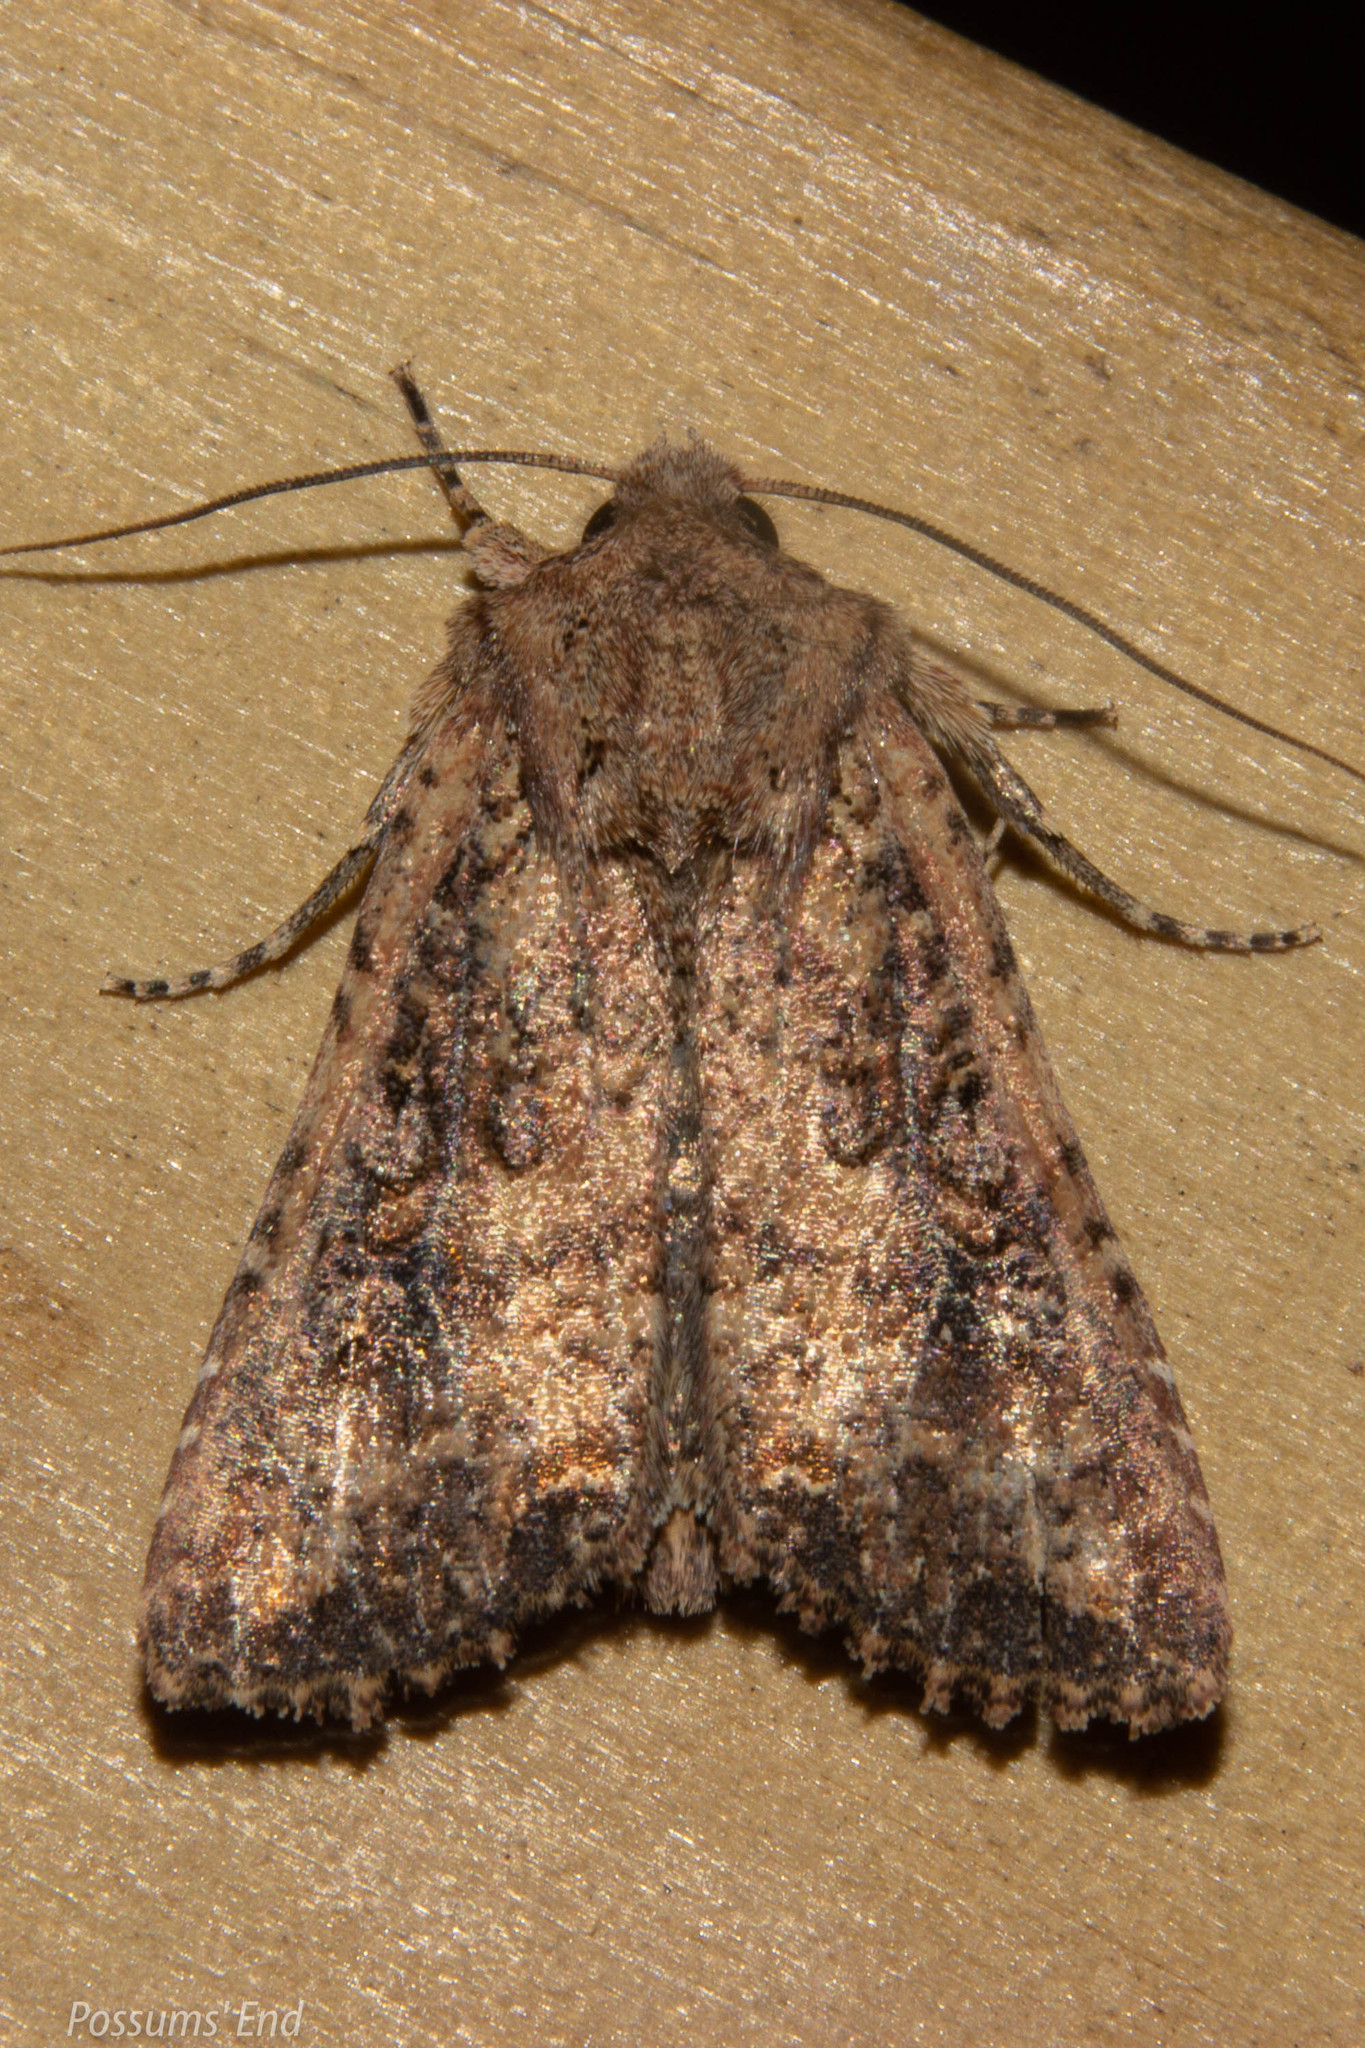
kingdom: Animalia
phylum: Arthropoda
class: Insecta
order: Lepidoptera
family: Noctuidae
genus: Ichneutica
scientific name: Ichneutica morosa
